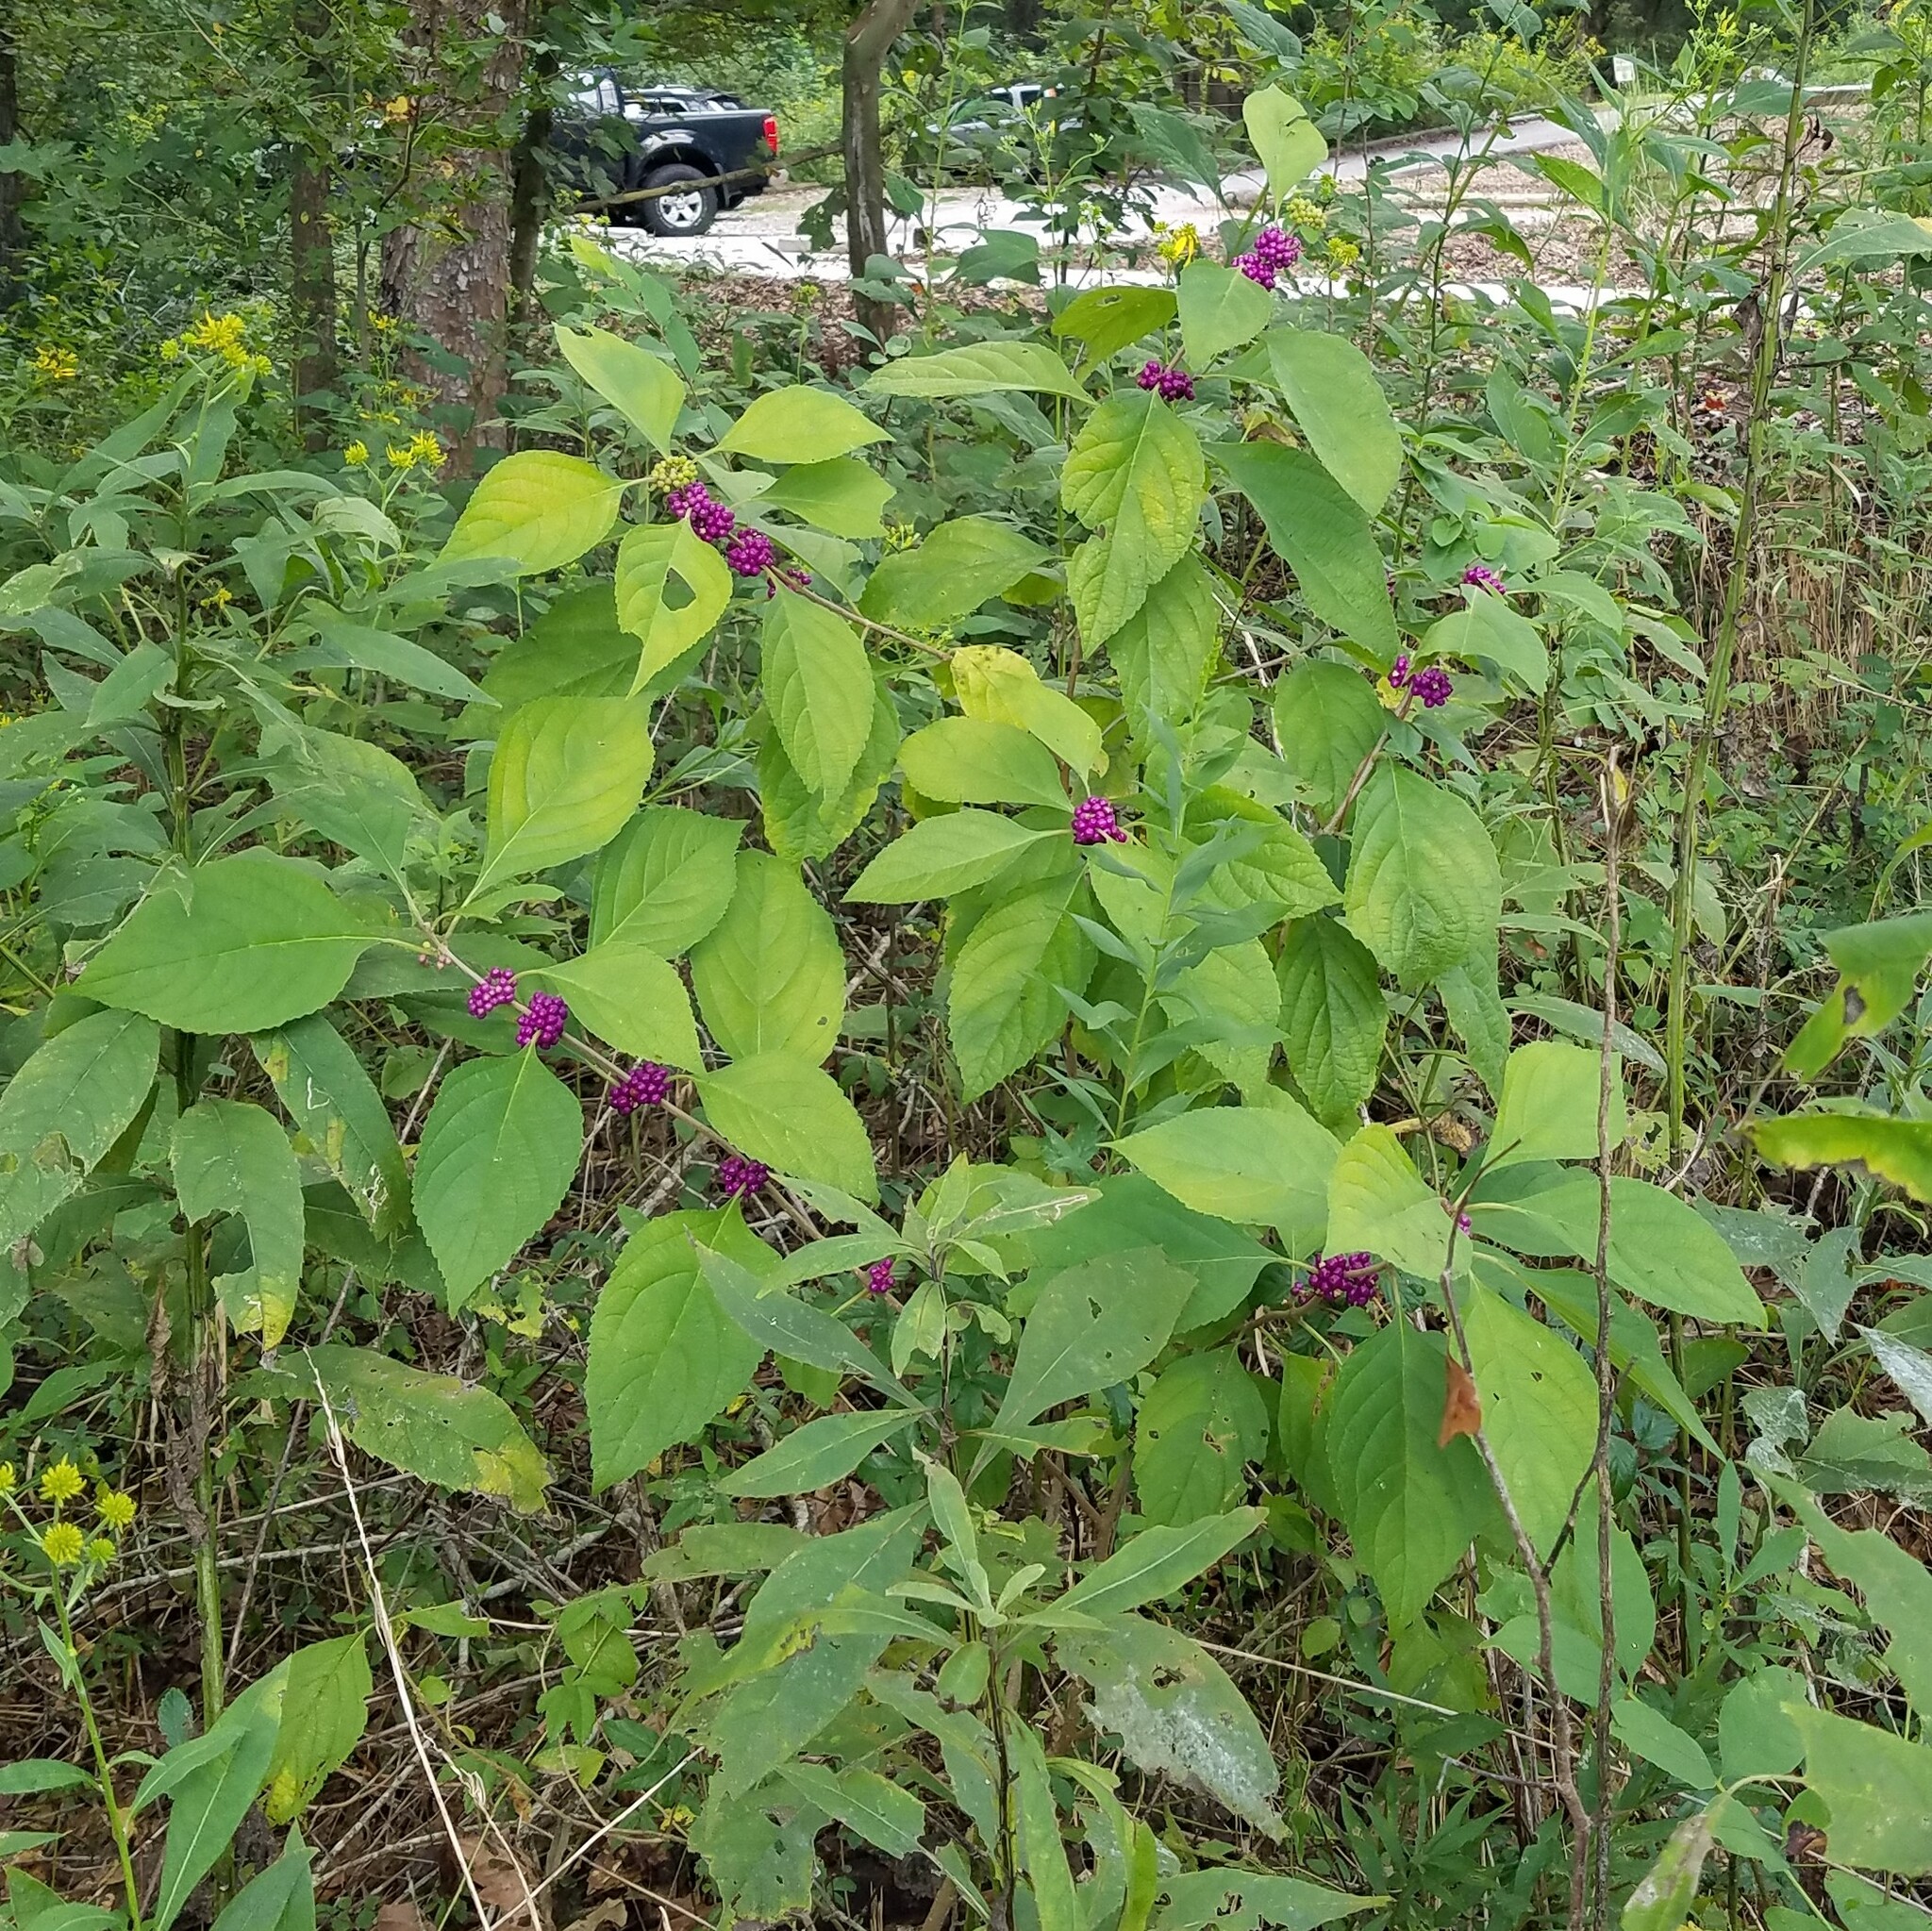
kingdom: Plantae
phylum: Tracheophyta
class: Magnoliopsida
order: Lamiales
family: Lamiaceae
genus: Callicarpa
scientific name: Callicarpa americana
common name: American beautyberry
